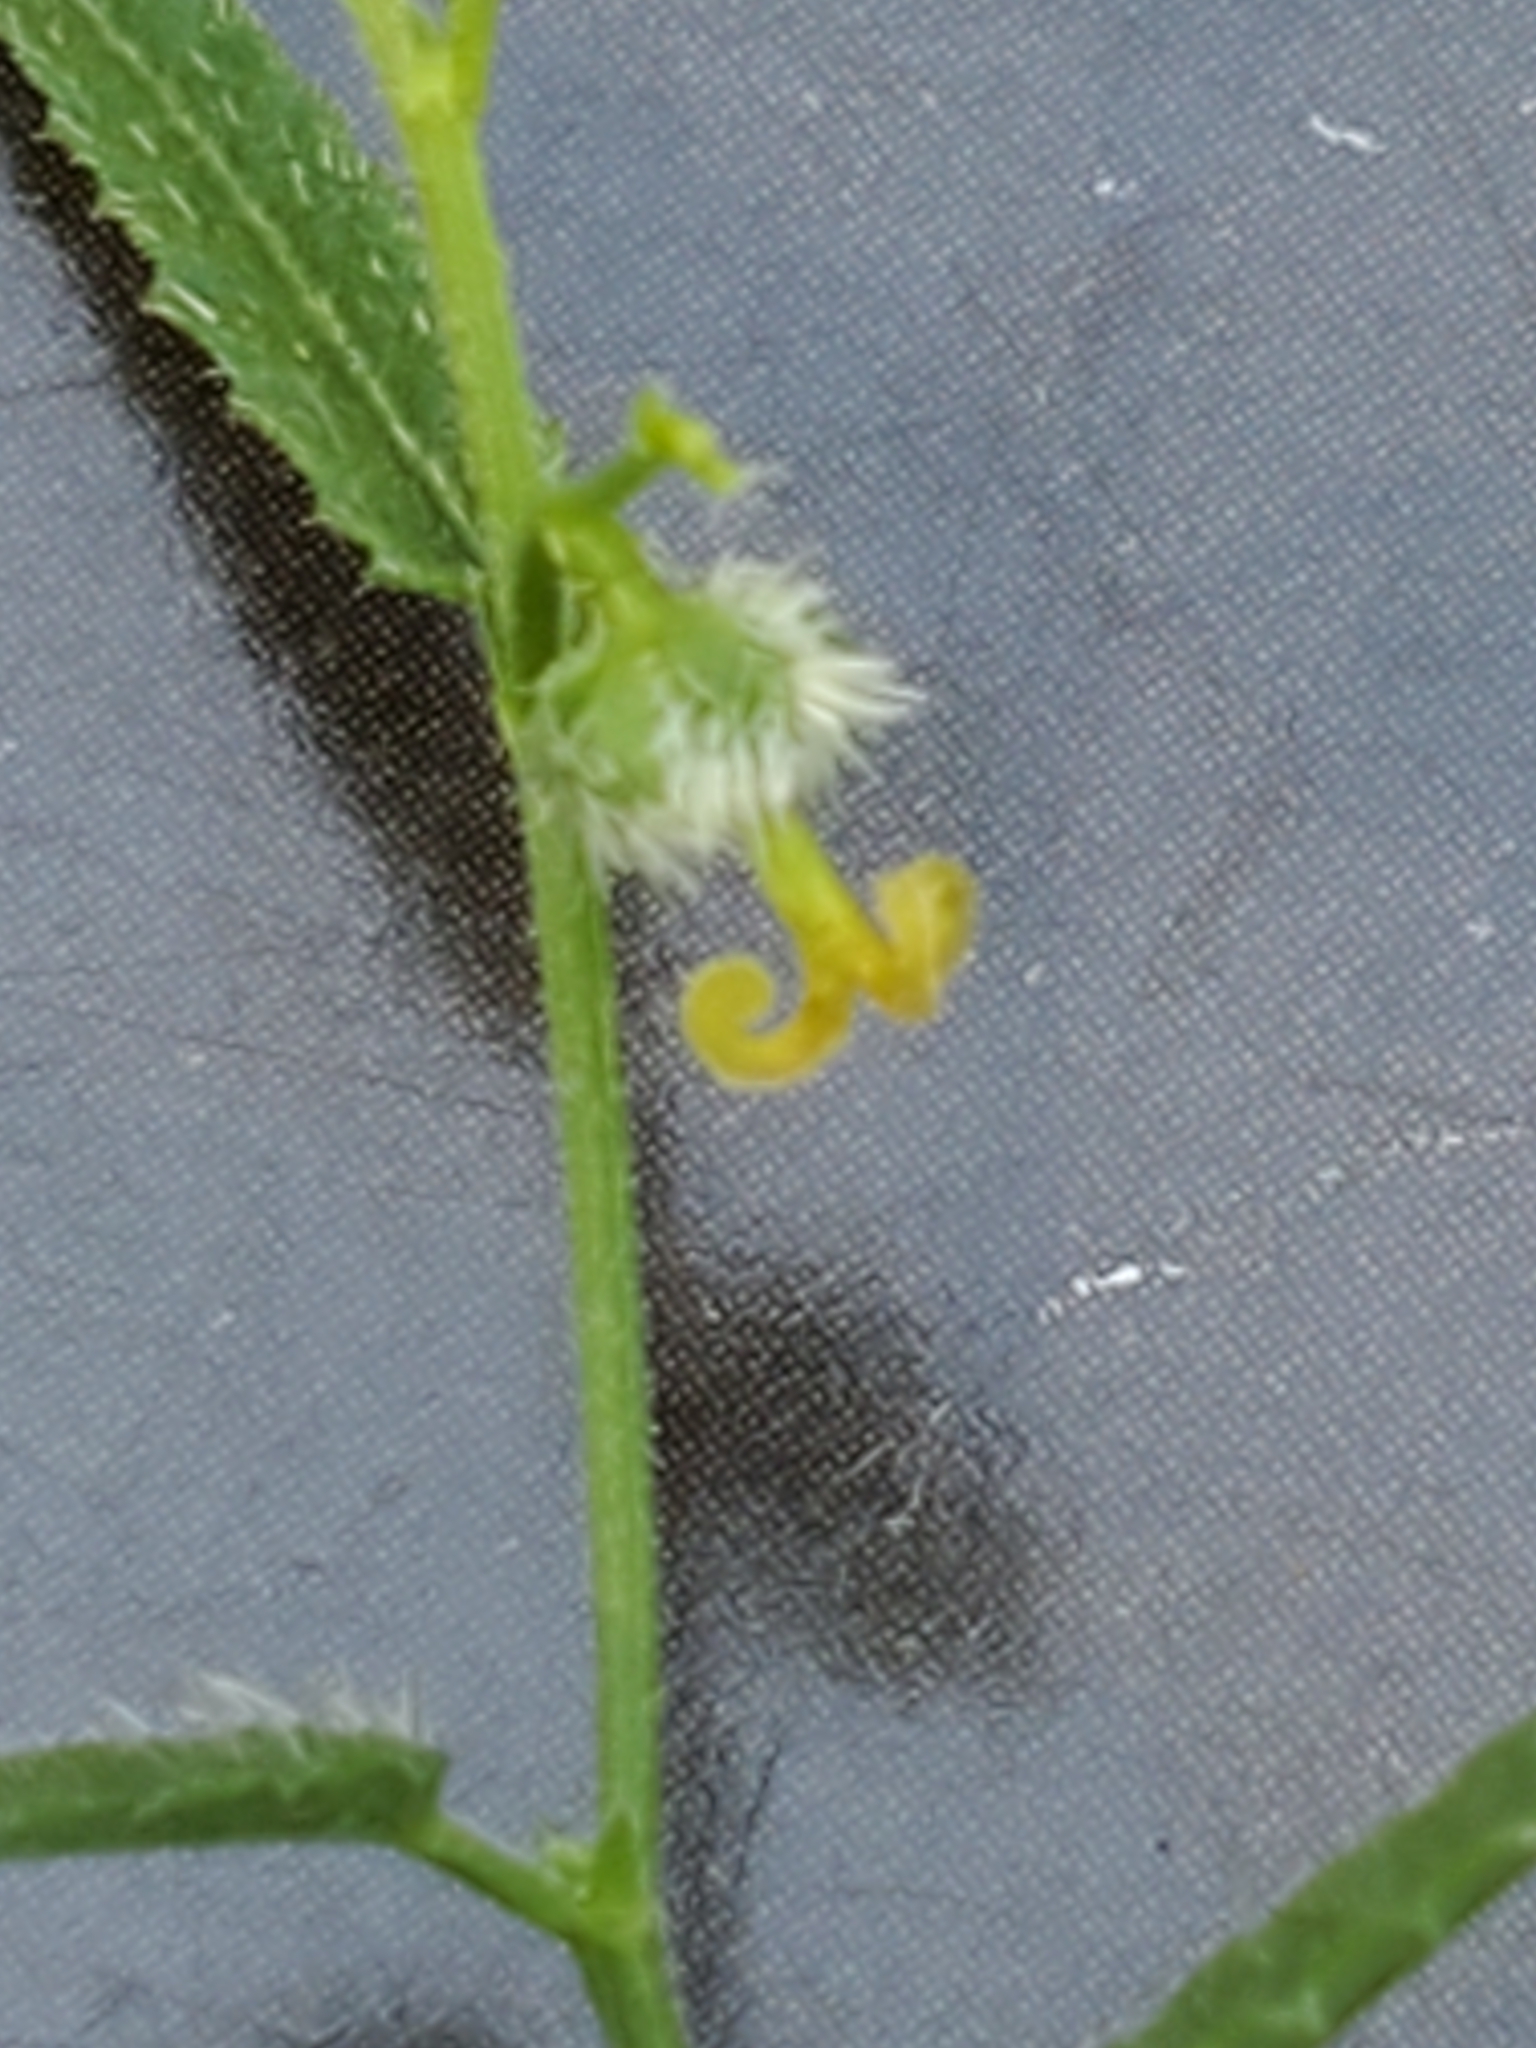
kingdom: Plantae
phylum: Tracheophyta
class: Magnoliopsida
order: Malpighiales
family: Euphorbiaceae
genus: Tragia
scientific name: Tragia ramosa
